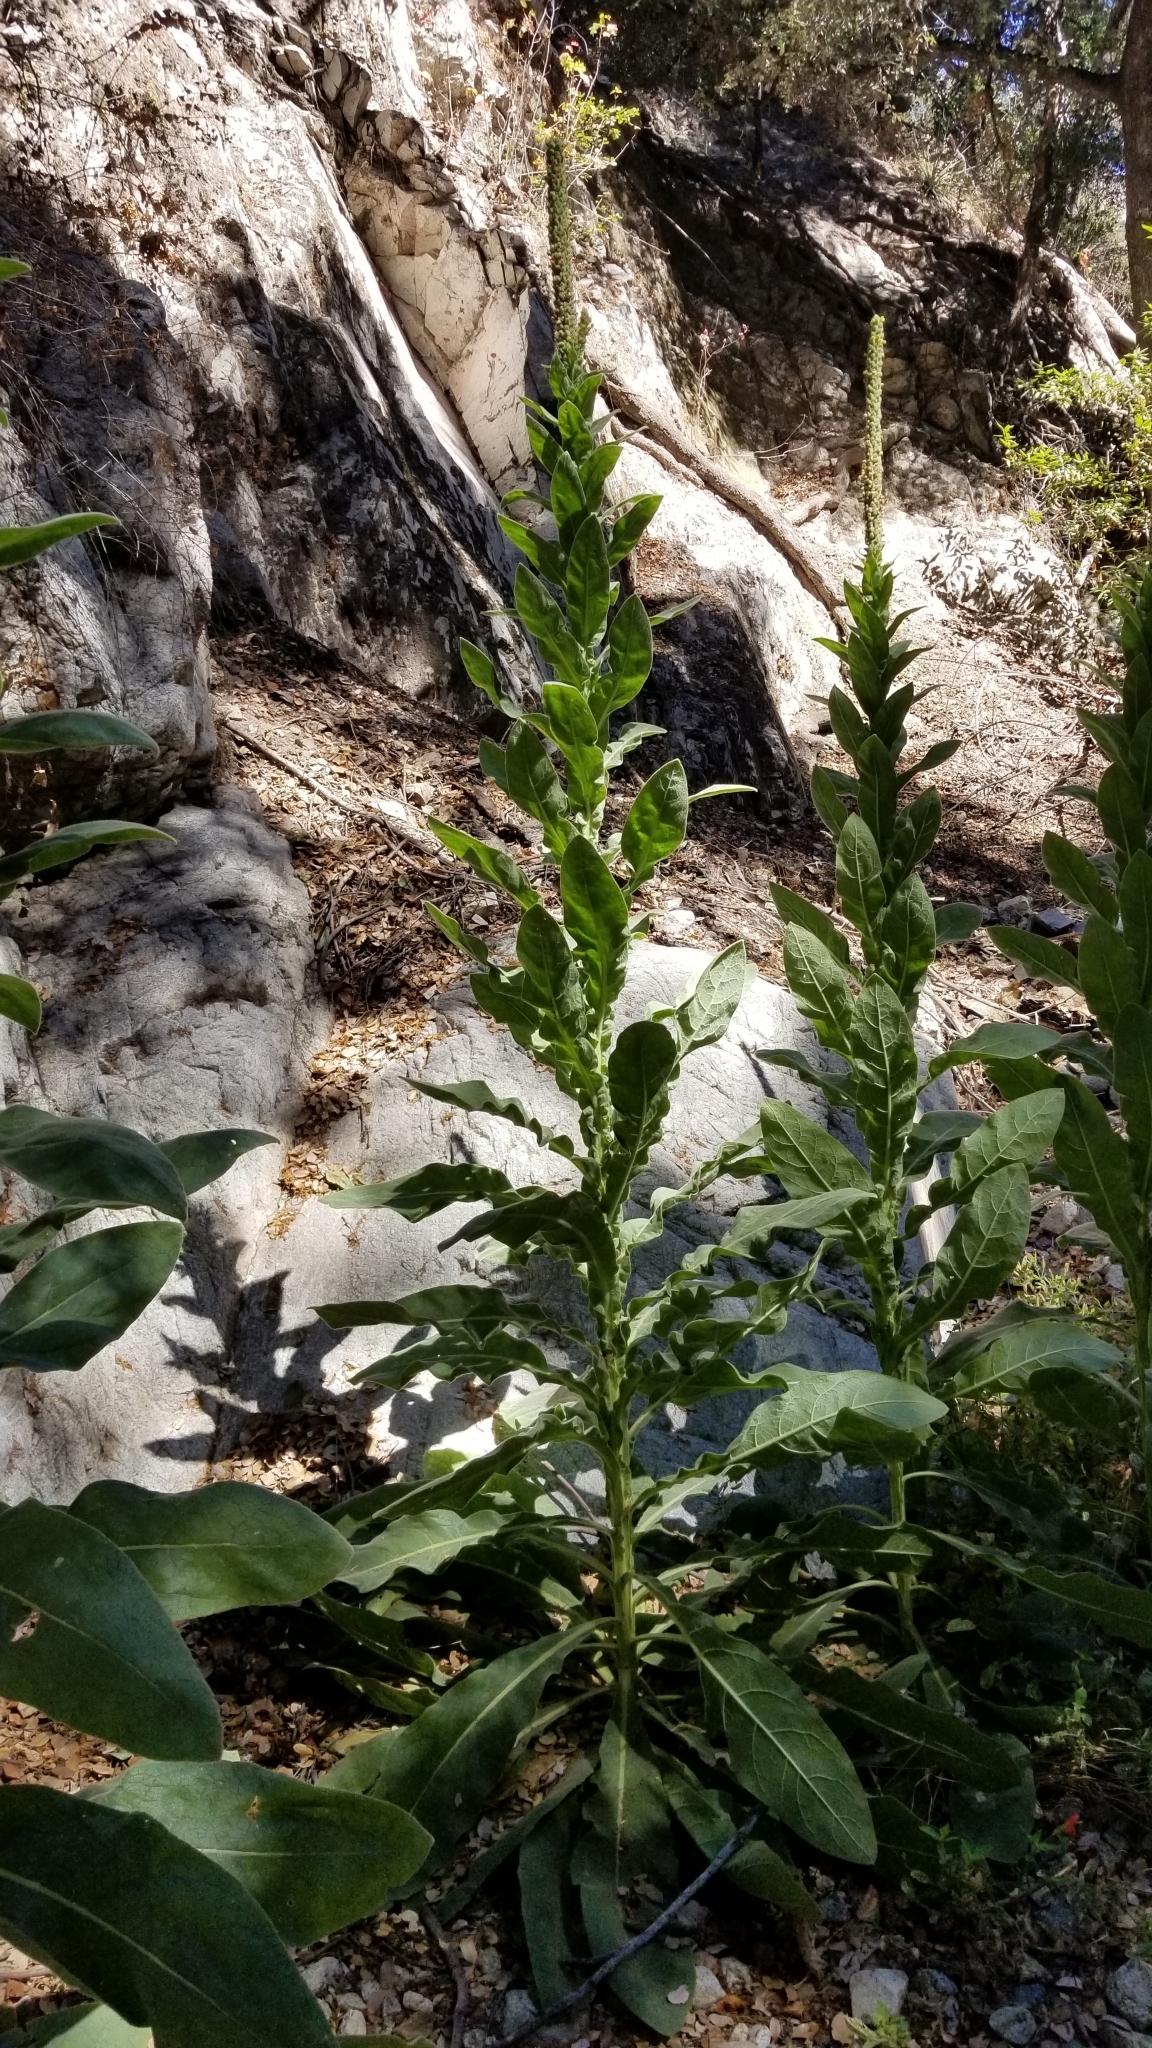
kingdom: Plantae
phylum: Tracheophyta
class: Magnoliopsida
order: Lamiales
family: Scrophulariaceae
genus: Verbascum
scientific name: Verbascum thapsus
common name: Common mullein
